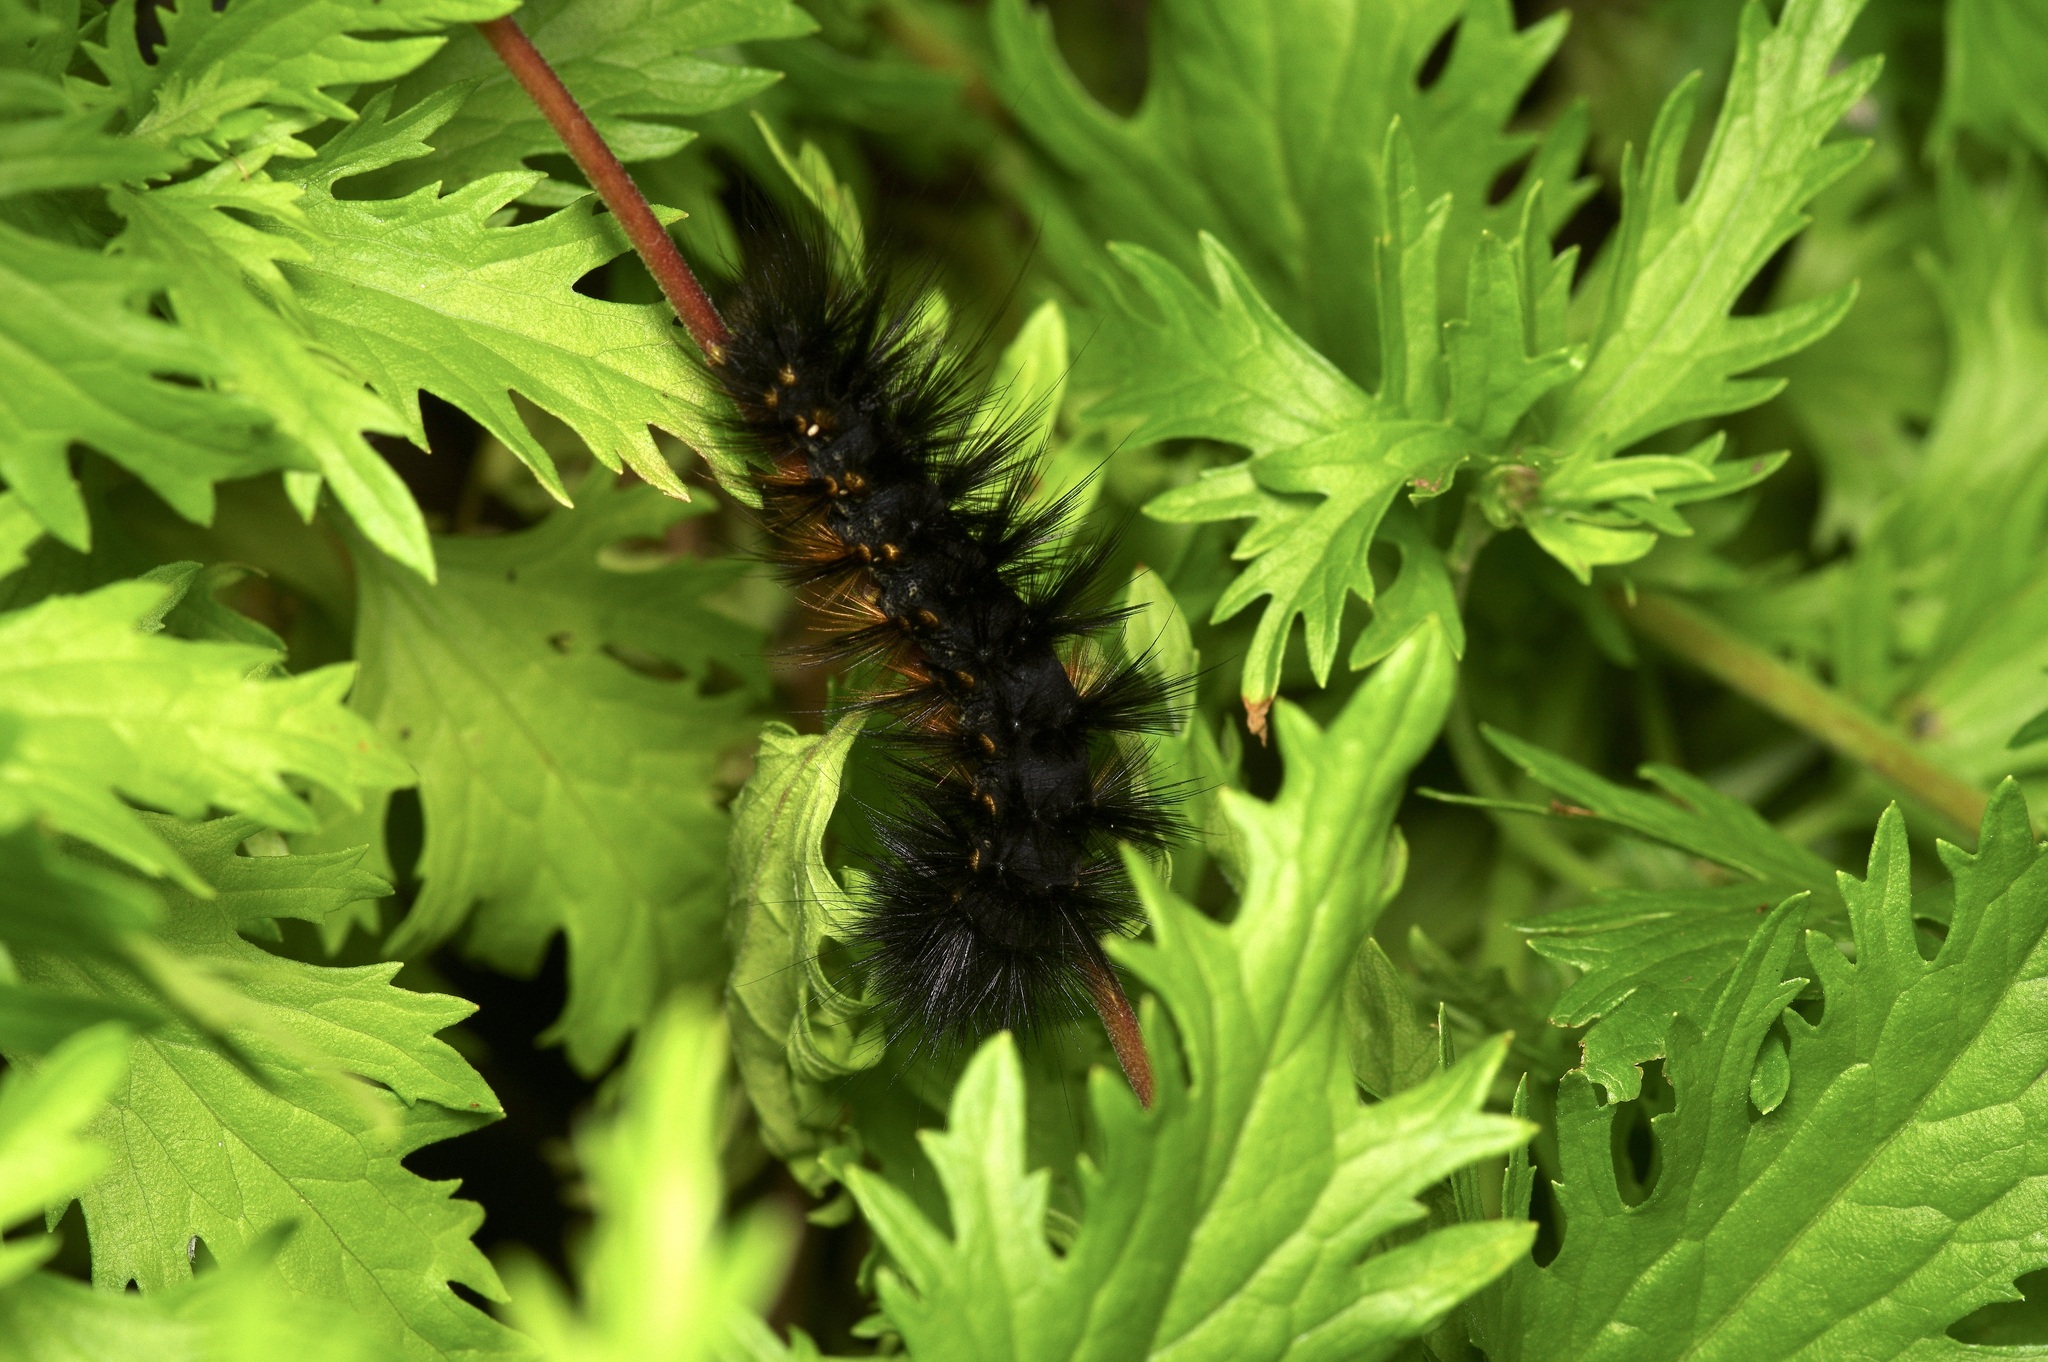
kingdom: Animalia
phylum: Arthropoda
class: Insecta
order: Lepidoptera
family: Erebidae
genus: Estigmene
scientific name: Estigmene acrea
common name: Salt marsh moth
